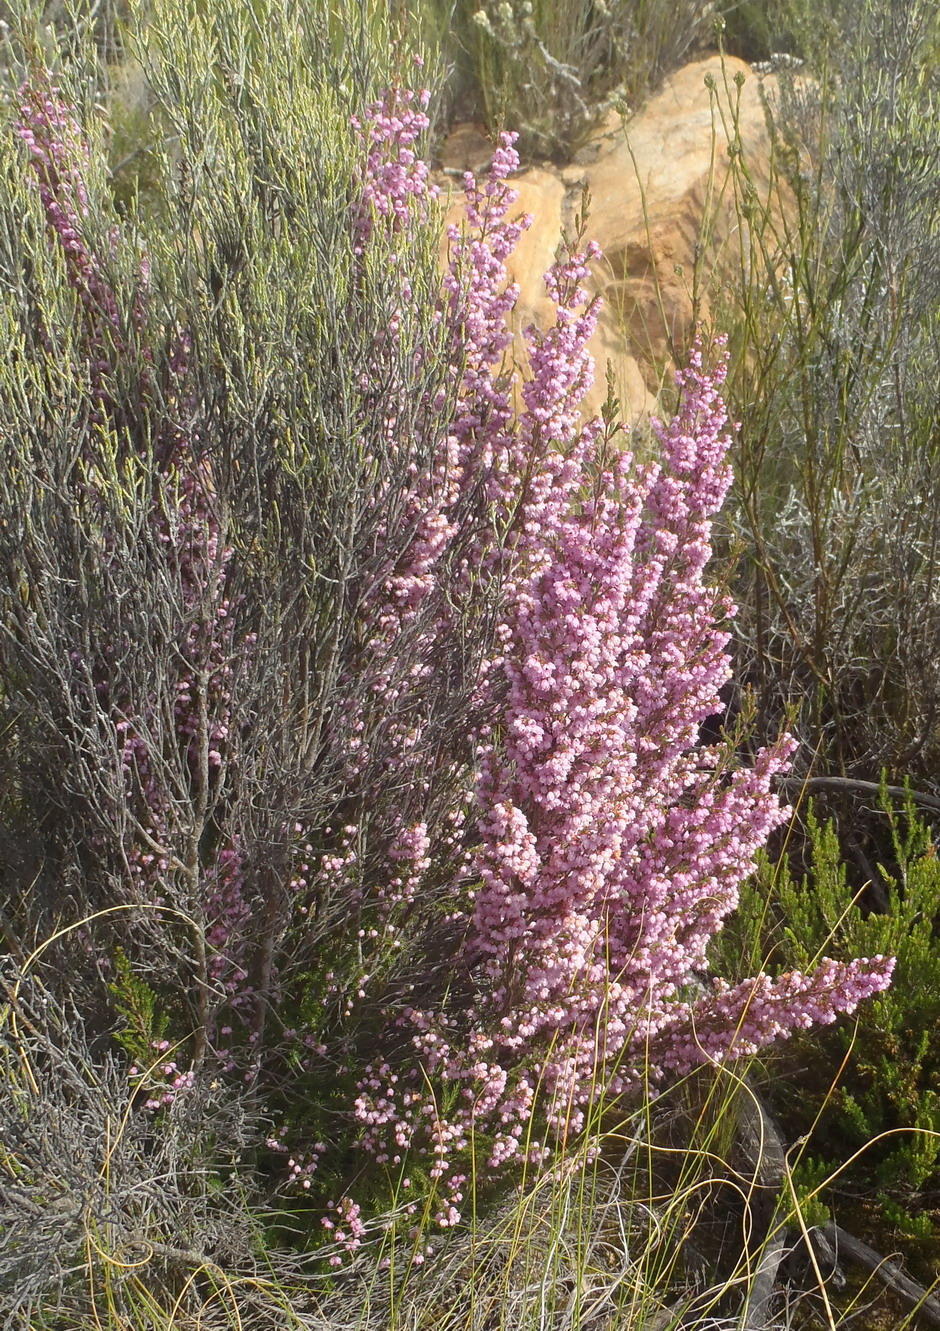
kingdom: Plantae
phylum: Tracheophyta
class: Magnoliopsida
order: Ericales
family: Ericaceae
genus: Erica
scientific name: Erica quadrangularis
